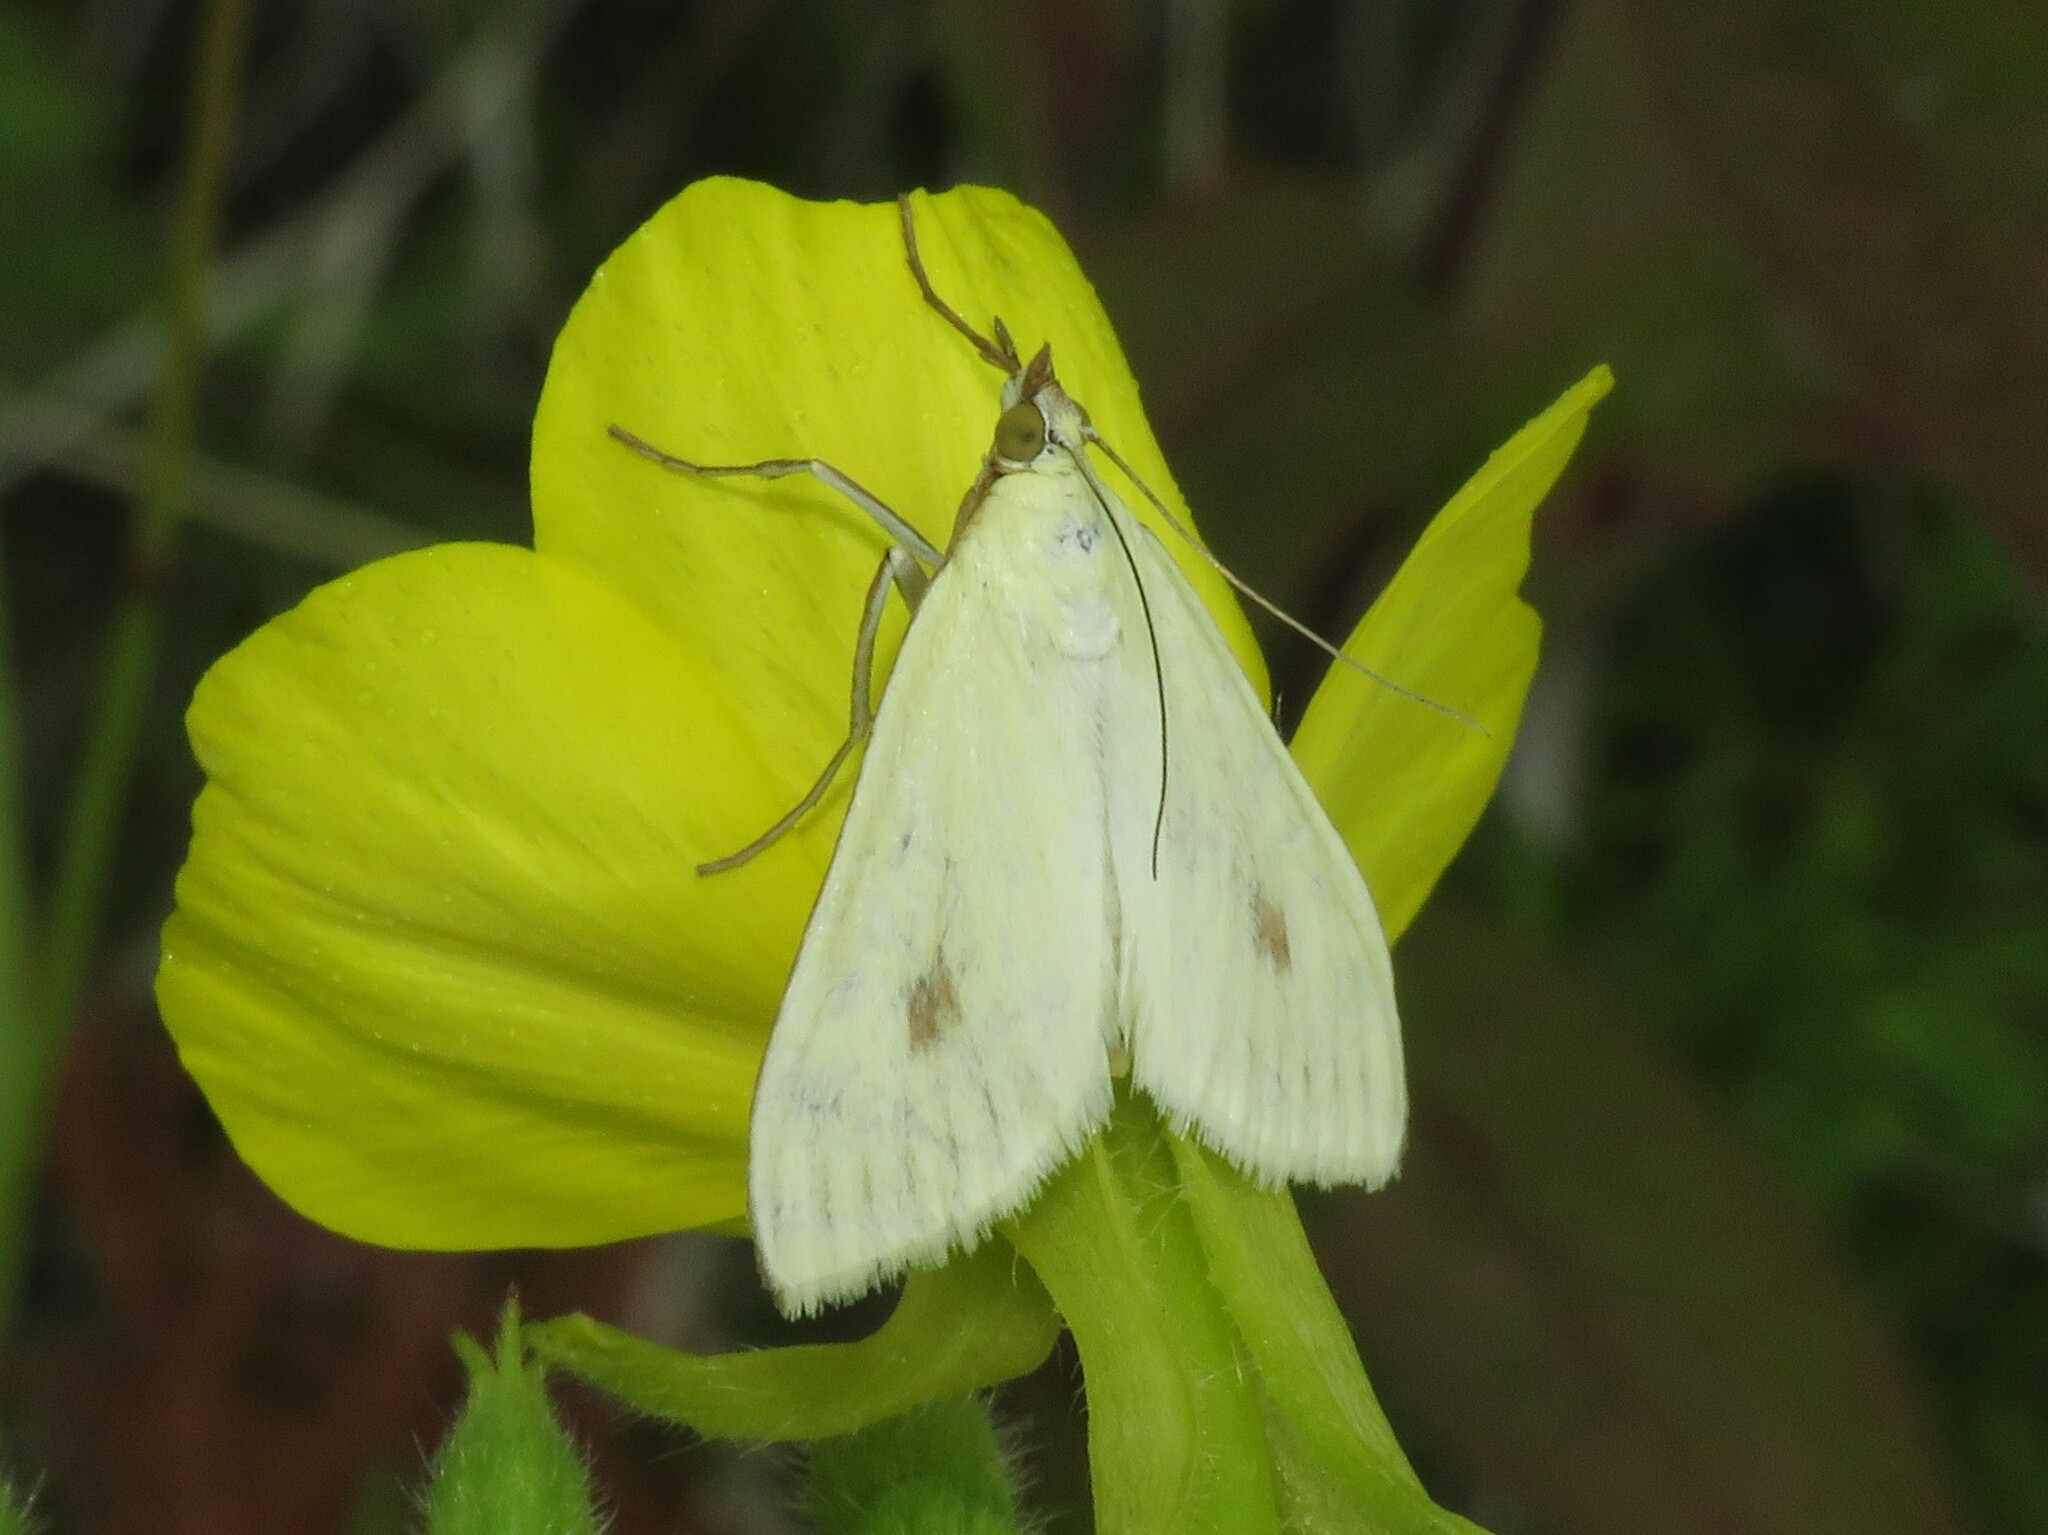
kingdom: Animalia
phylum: Arthropoda
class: Insecta
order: Lepidoptera
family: Crambidae
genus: Sitochroa
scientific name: Sitochroa palealis
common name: Greenish-yellow sitochroa moth
